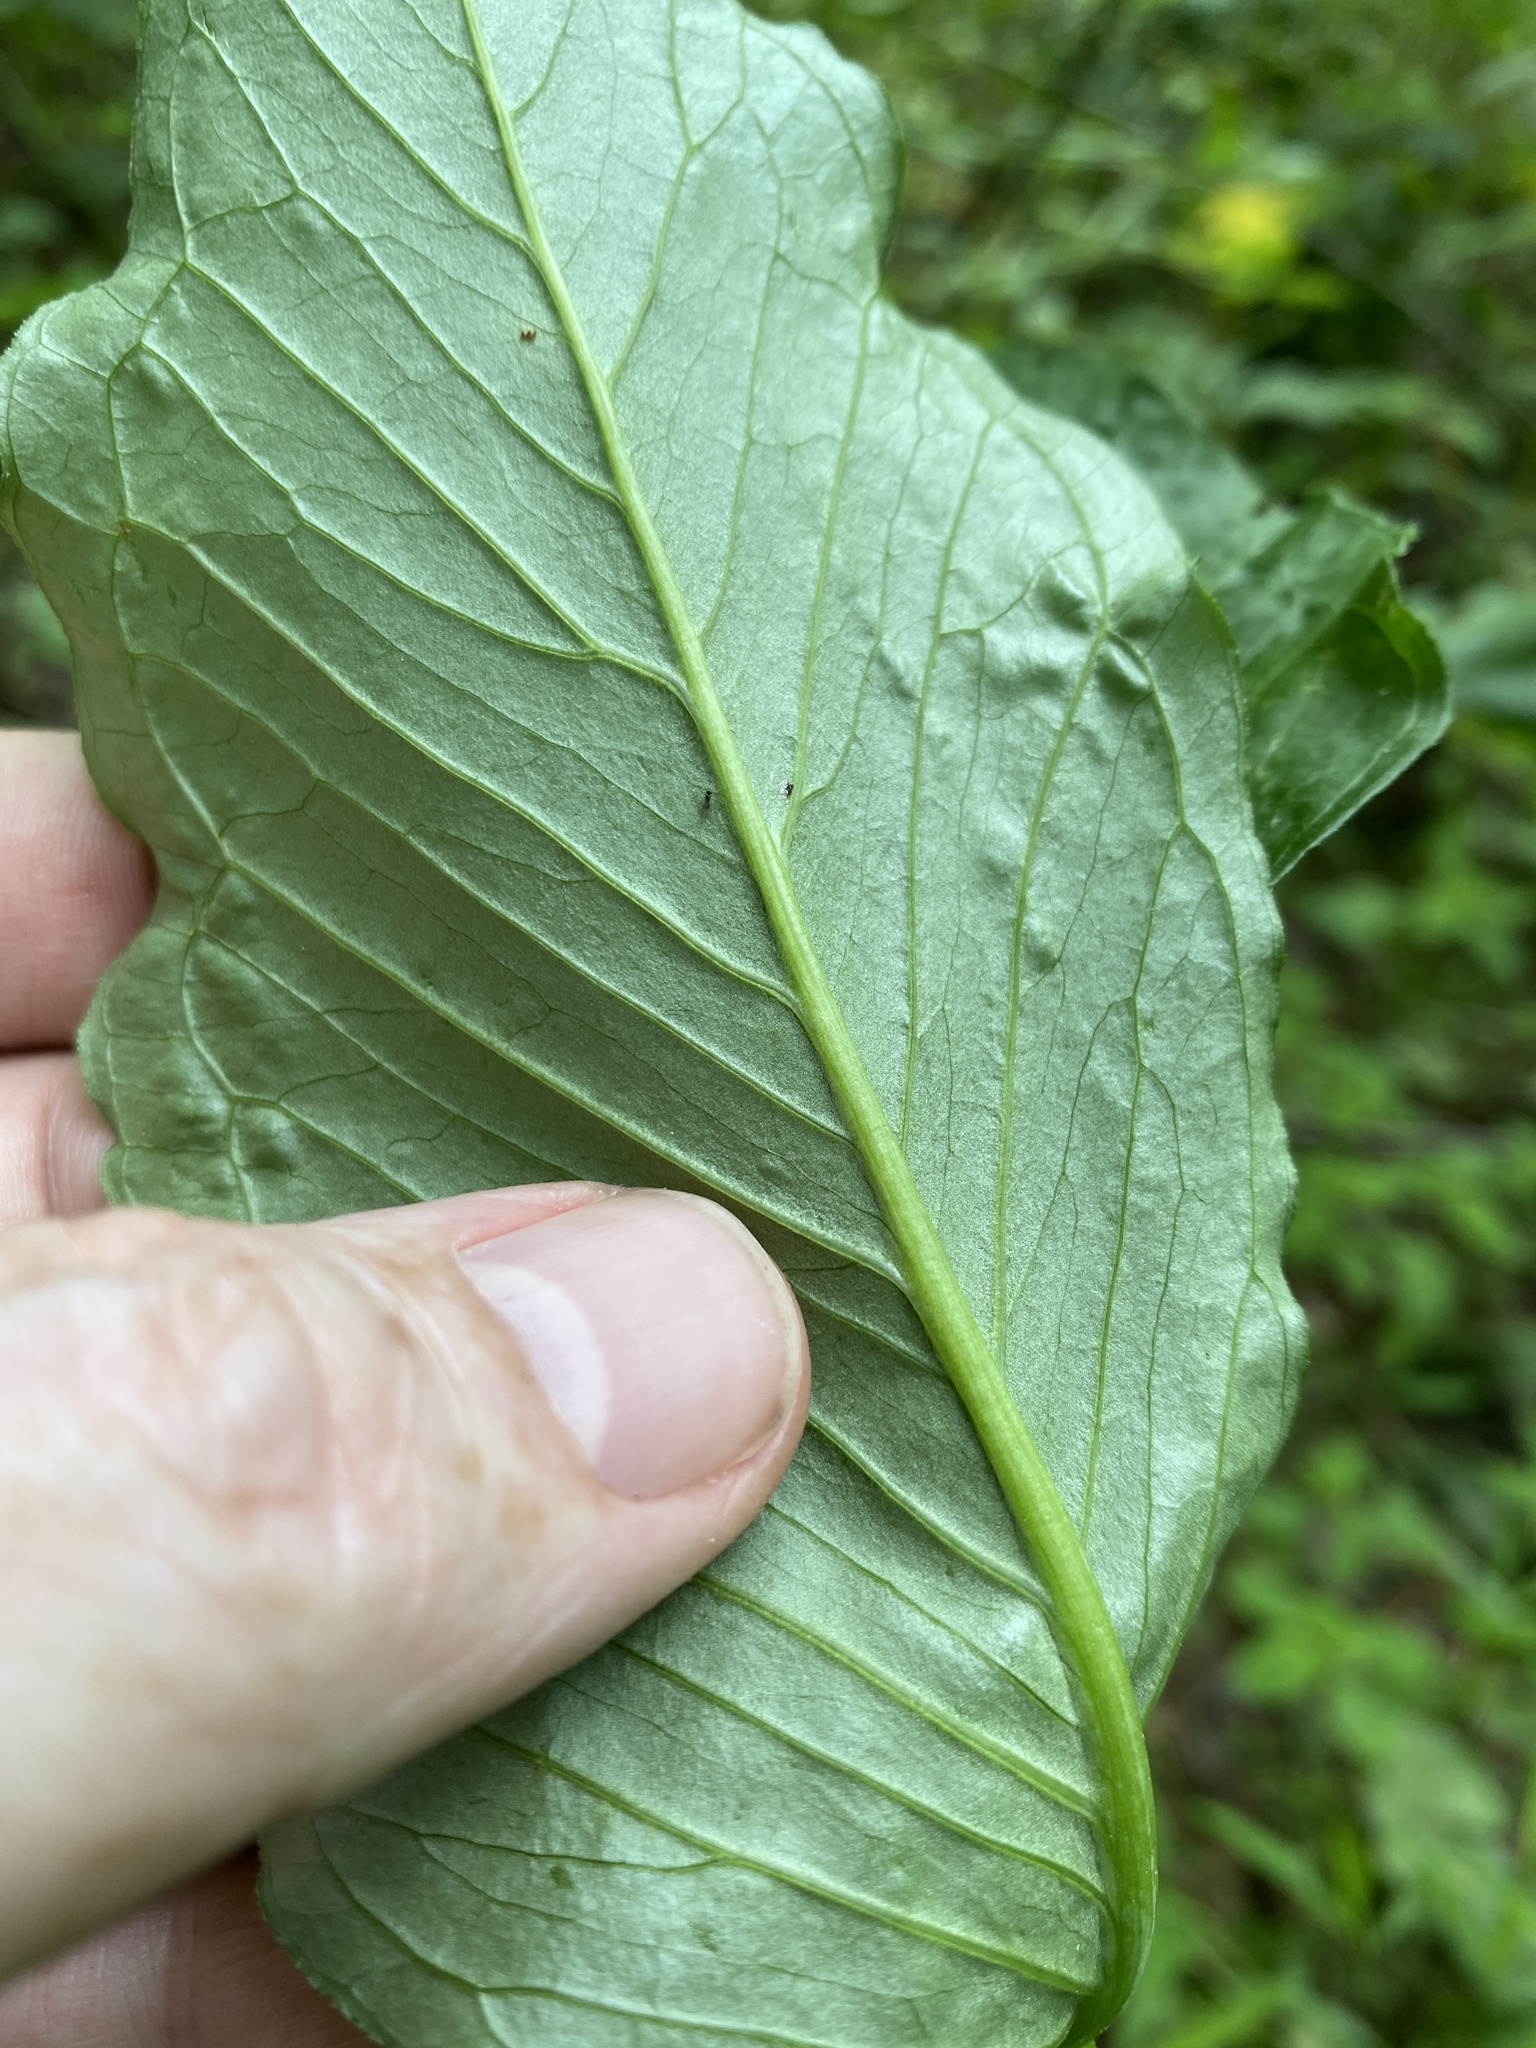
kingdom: Plantae
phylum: Tracheophyta
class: Liliopsida
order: Alismatales
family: Araceae
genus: Arisaema
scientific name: Arisaema stewardsonii
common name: Swamp jack-in-the-pulpit
